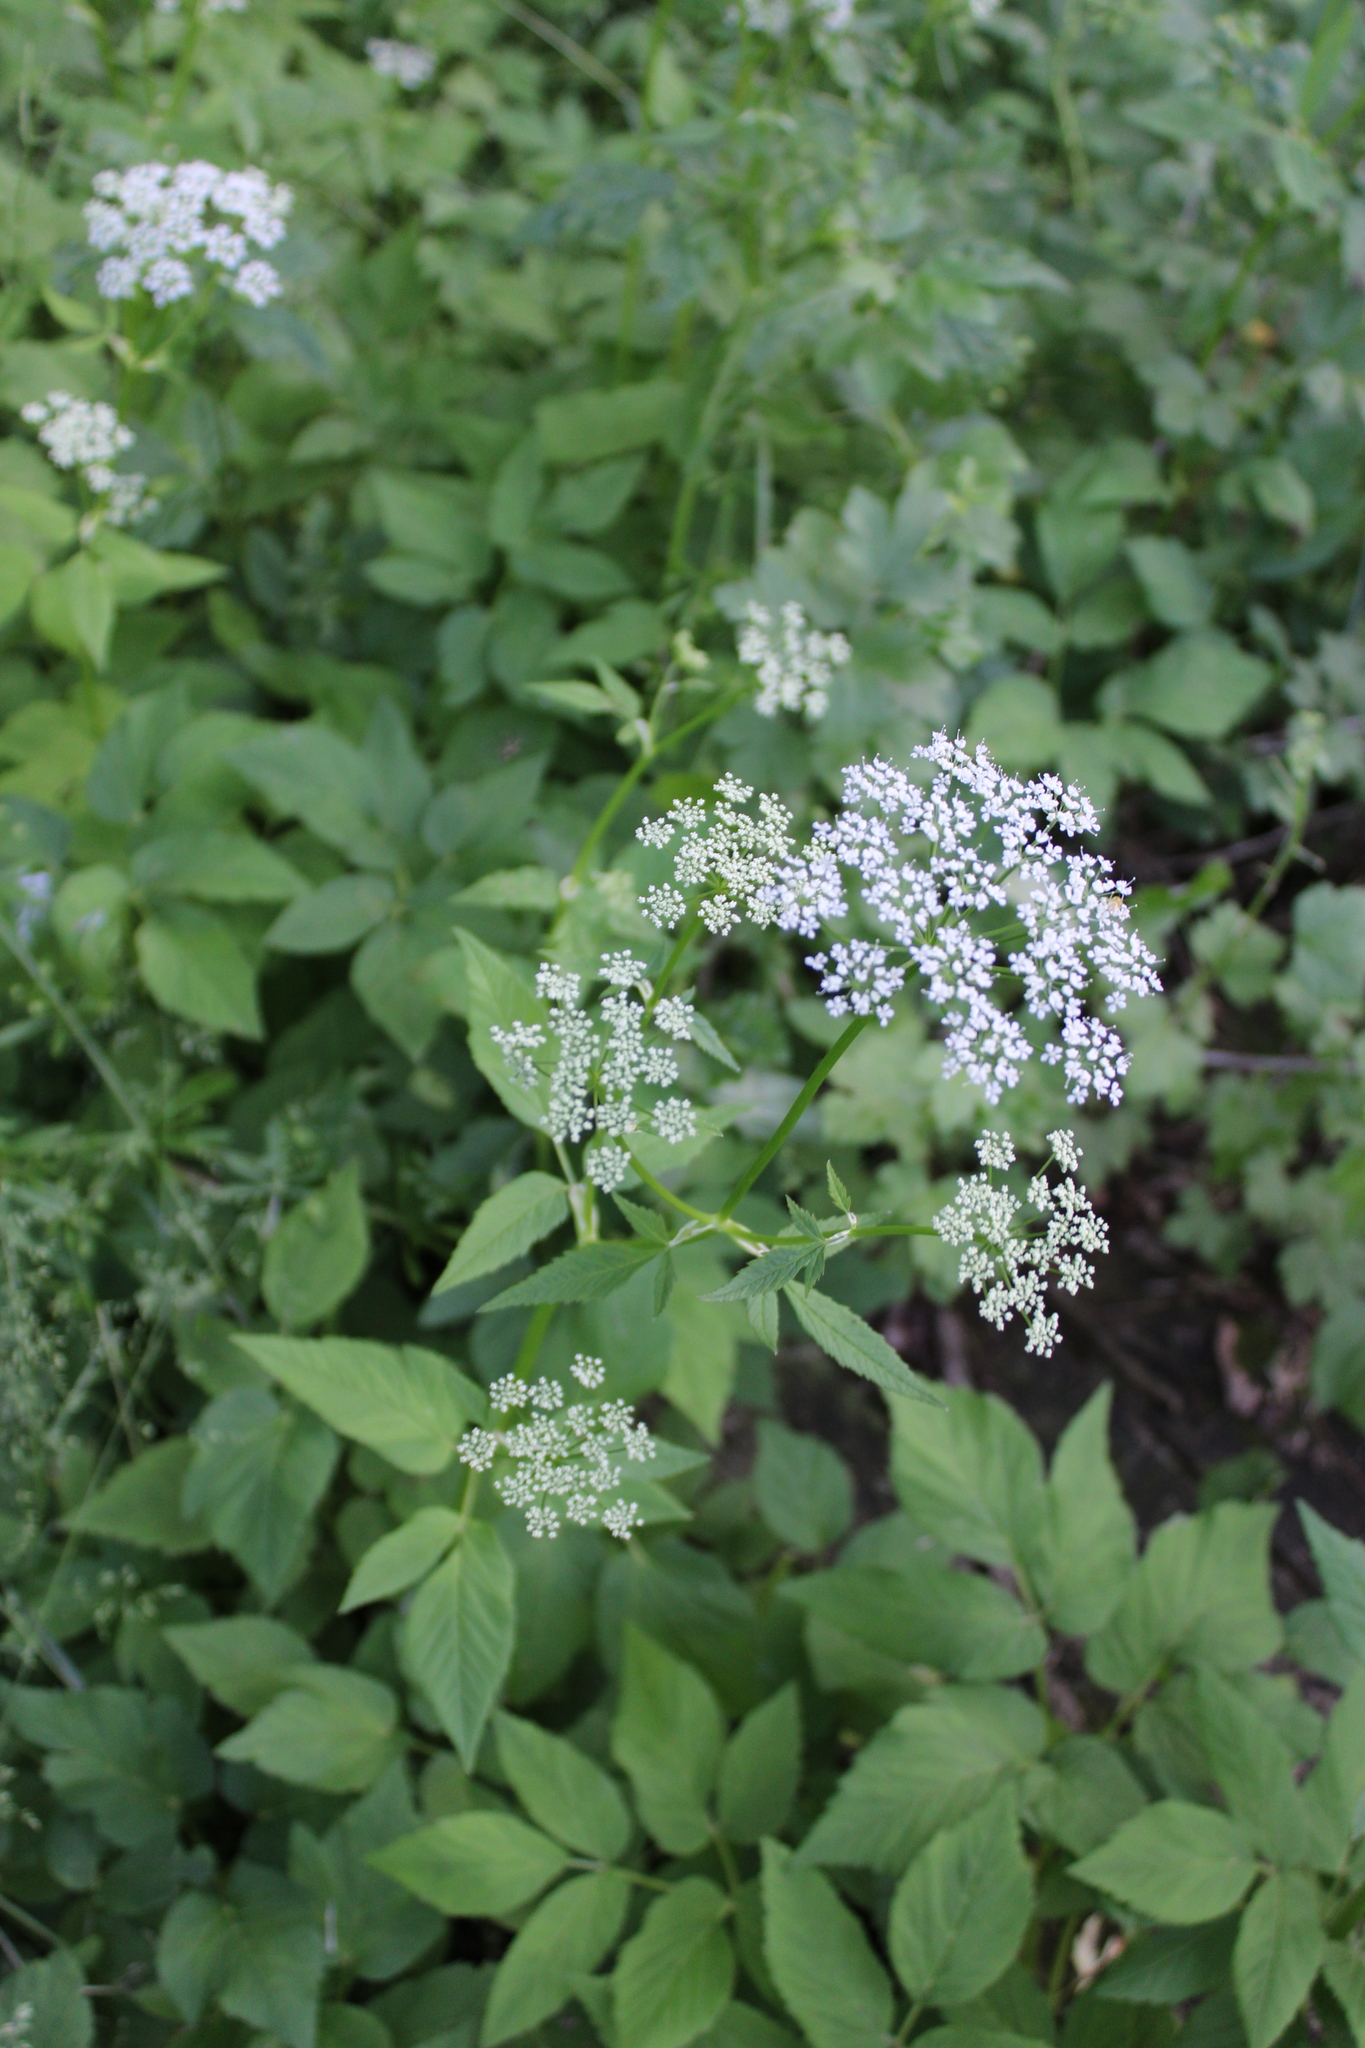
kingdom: Plantae
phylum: Tracheophyta
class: Magnoliopsida
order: Apiales
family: Apiaceae
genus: Aegopodium
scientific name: Aegopodium podagraria
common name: Ground-elder
